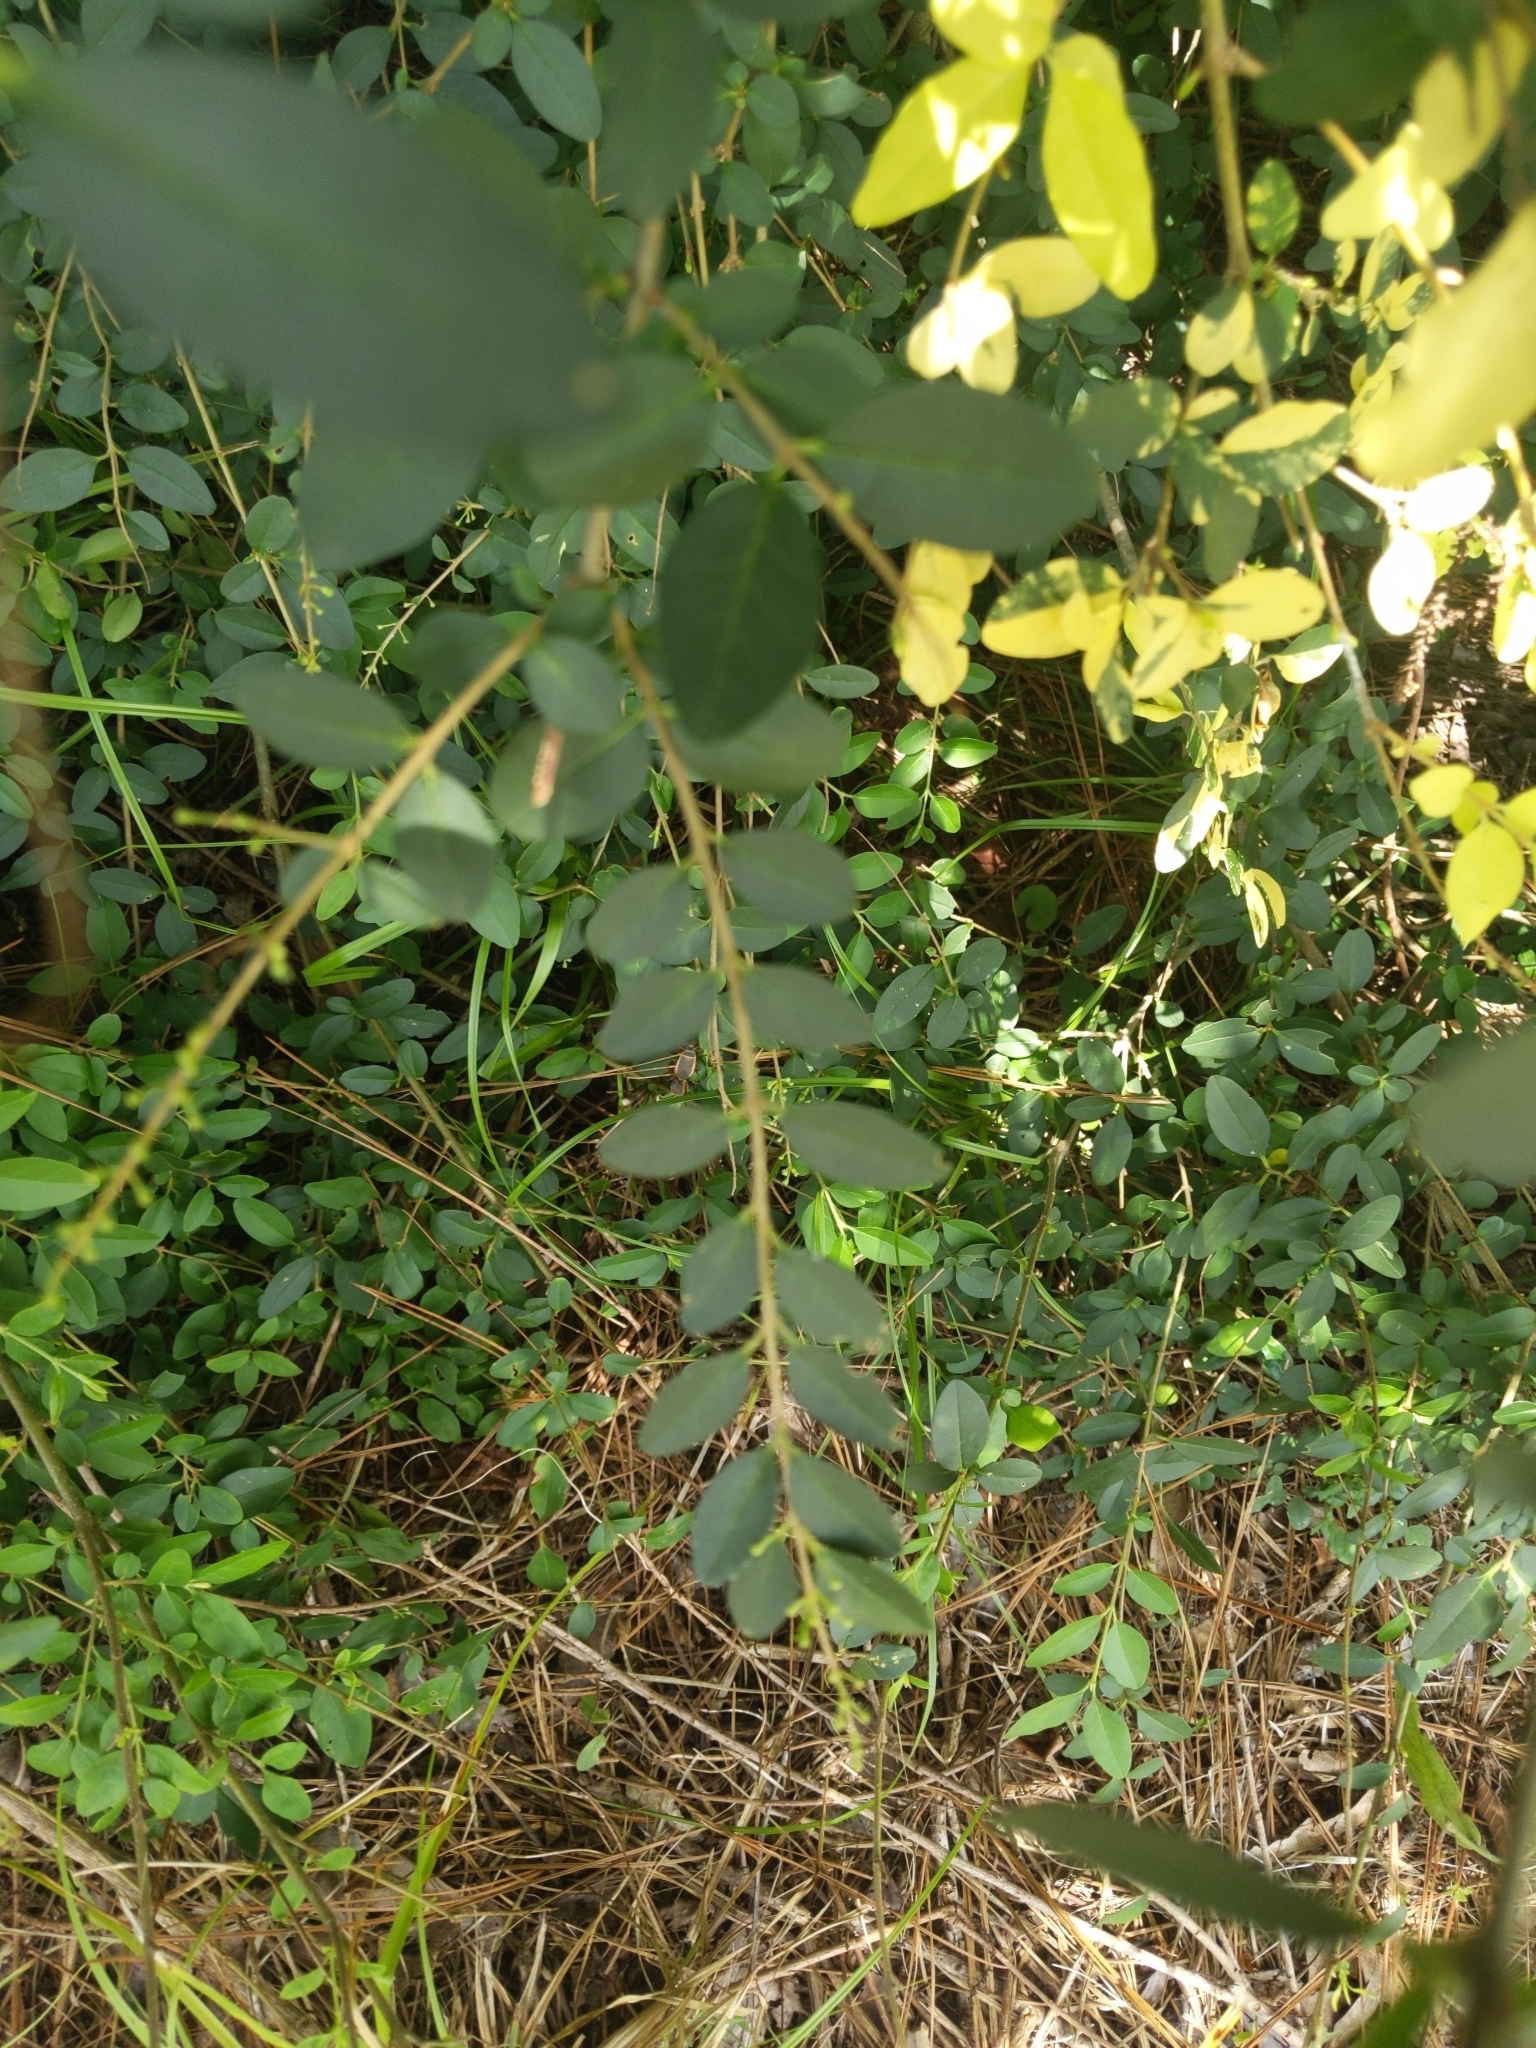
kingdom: Plantae
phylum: Tracheophyta
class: Magnoliopsida
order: Lamiales
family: Oleaceae
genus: Ligustrum
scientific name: Ligustrum sinense
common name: Chinese privet
